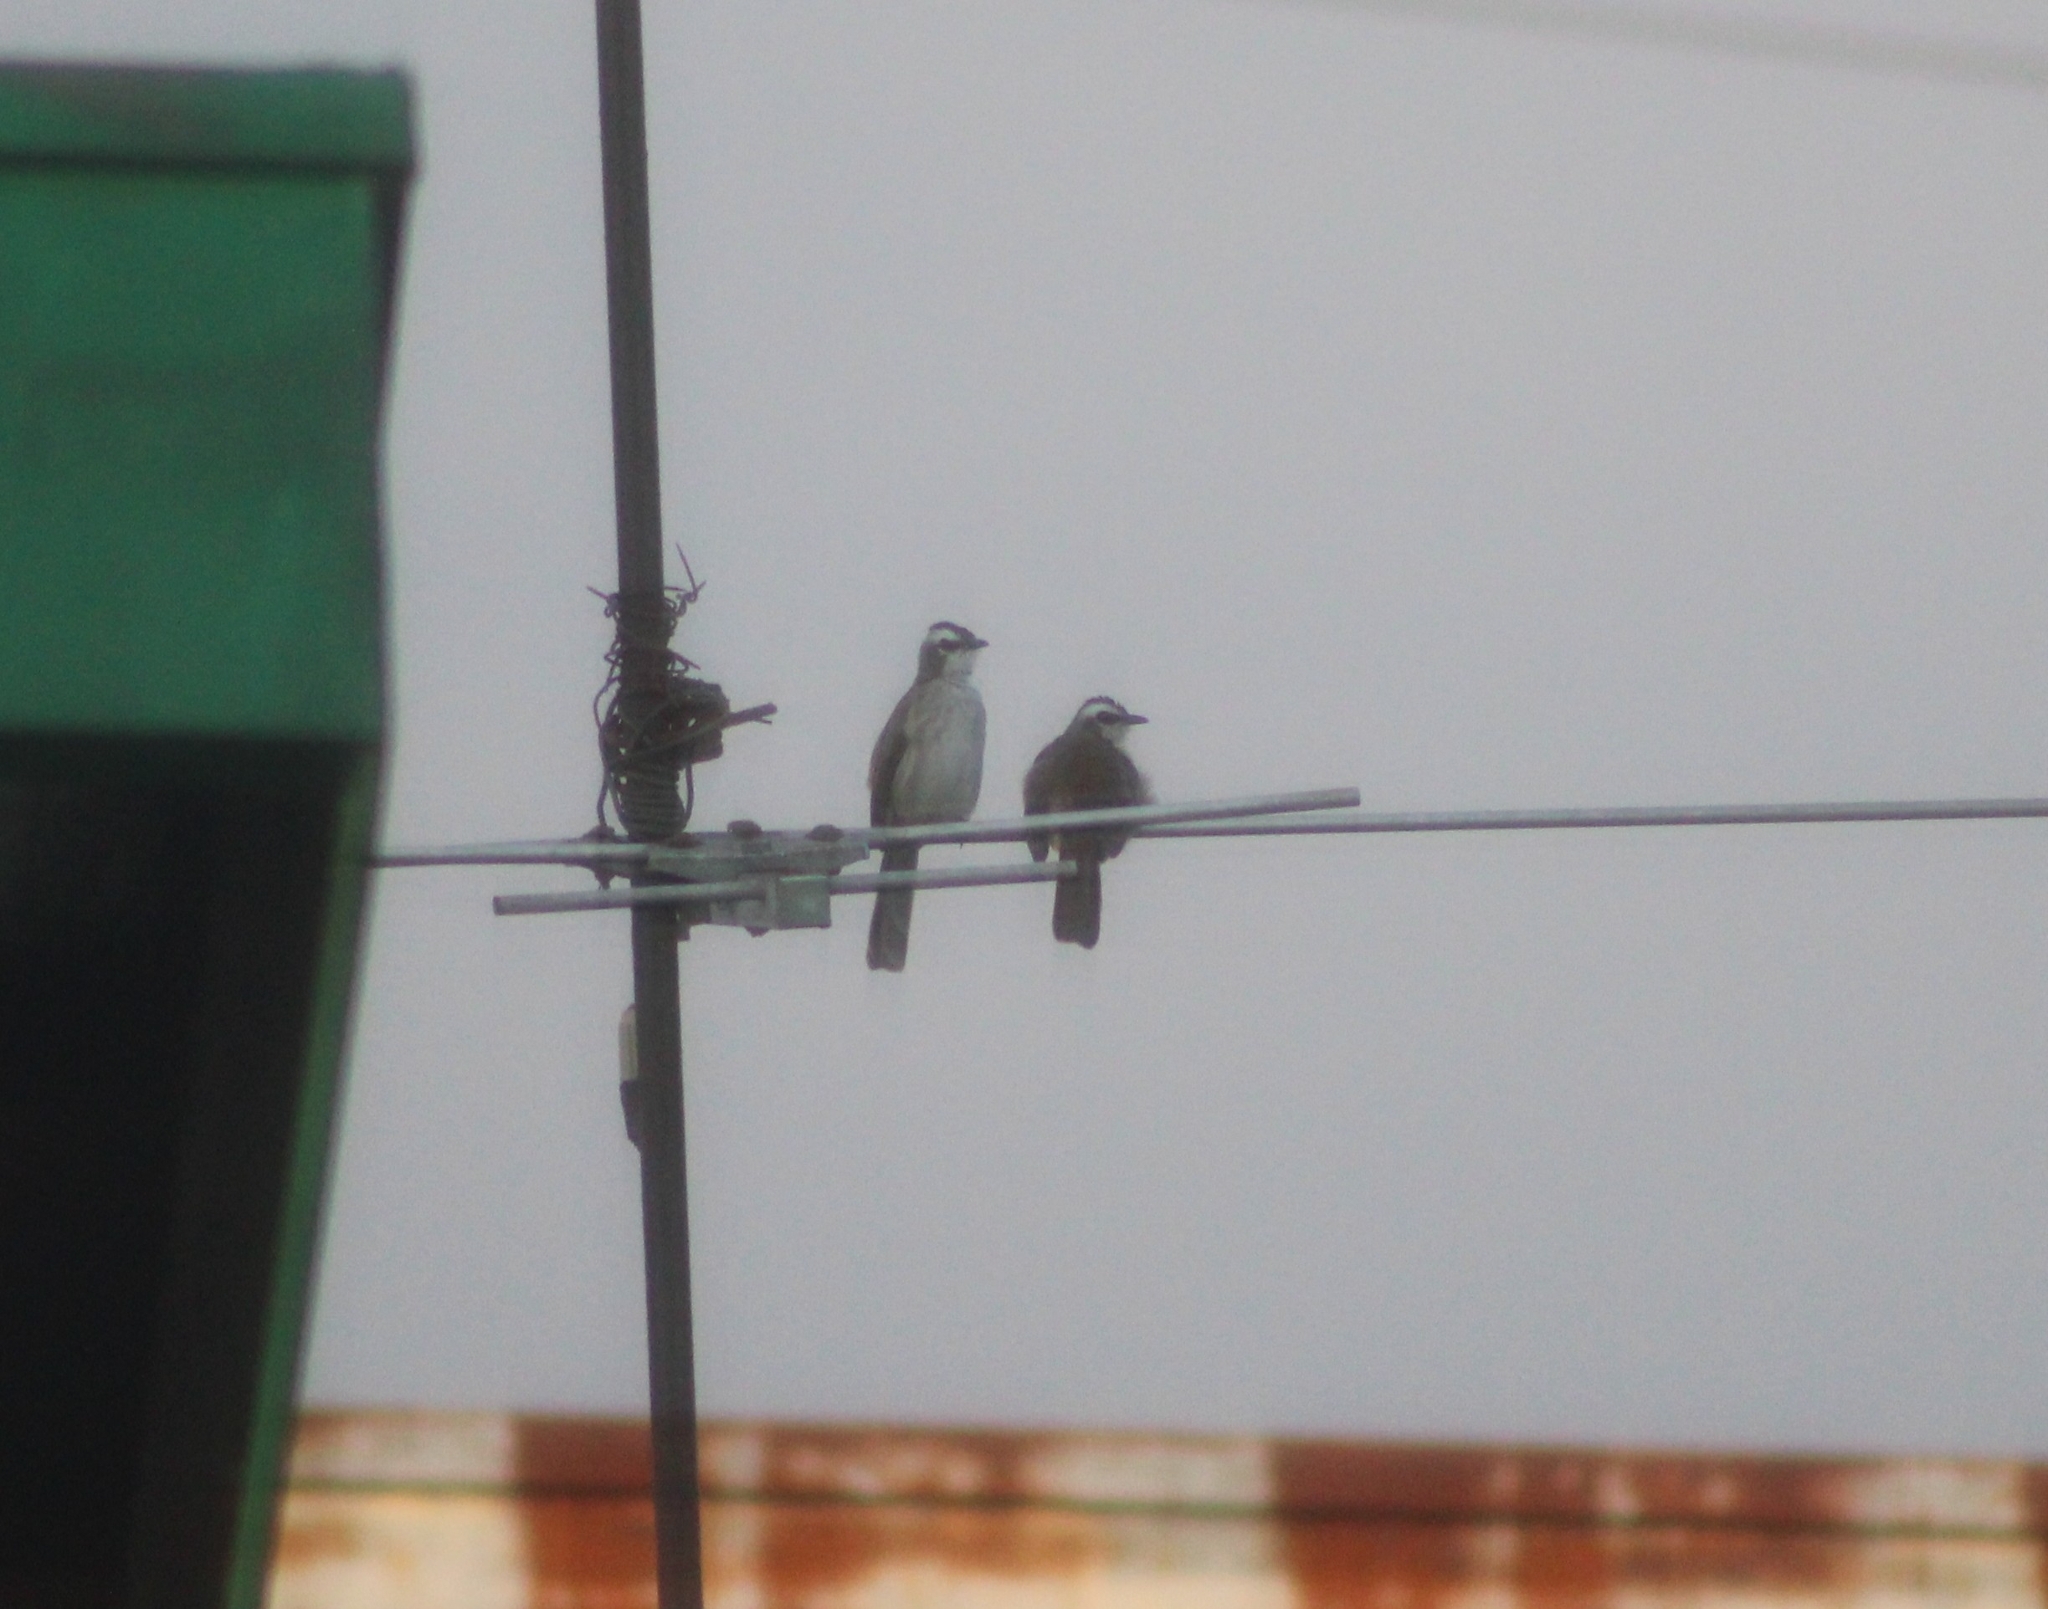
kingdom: Animalia
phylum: Chordata
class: Aves
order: Passeriformes
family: Pycnonotidae
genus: Pycnonotus
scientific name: Pycnonotus goiavier
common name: Yellow-vented bulbul
